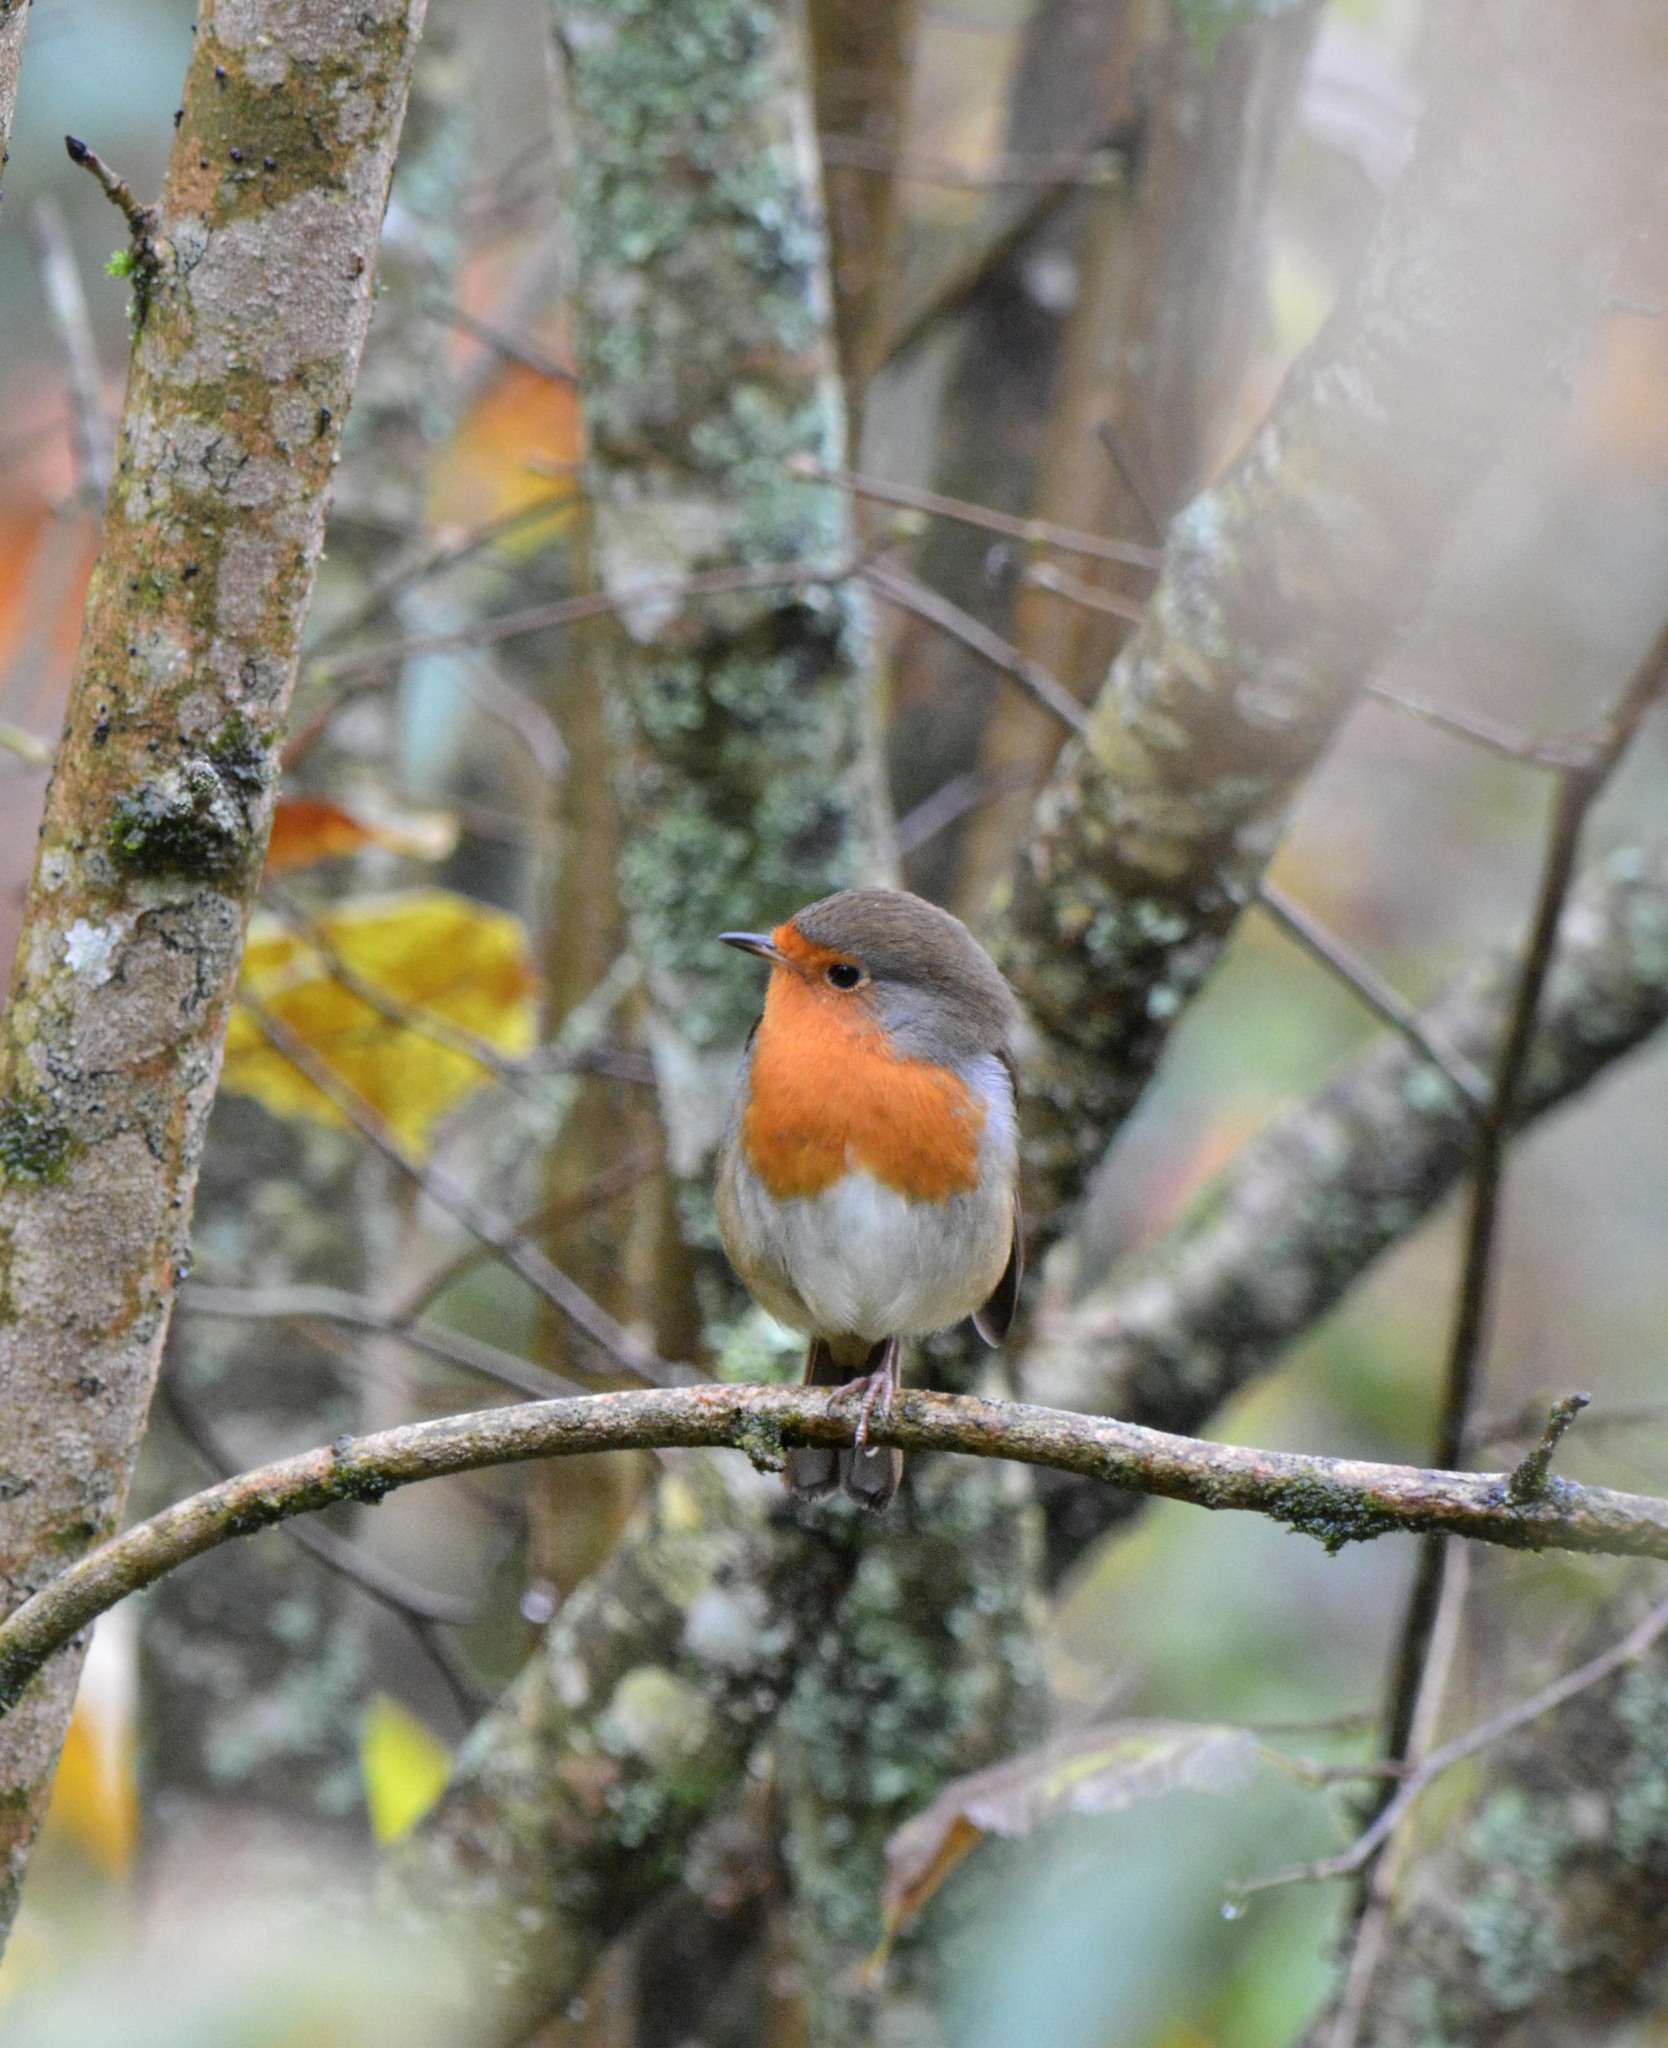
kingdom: Animalia
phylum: Chordata
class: Aves
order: Passeriformes
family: Muscicapidae
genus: Erithacus
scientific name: Erithacus rubecula
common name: European robin
